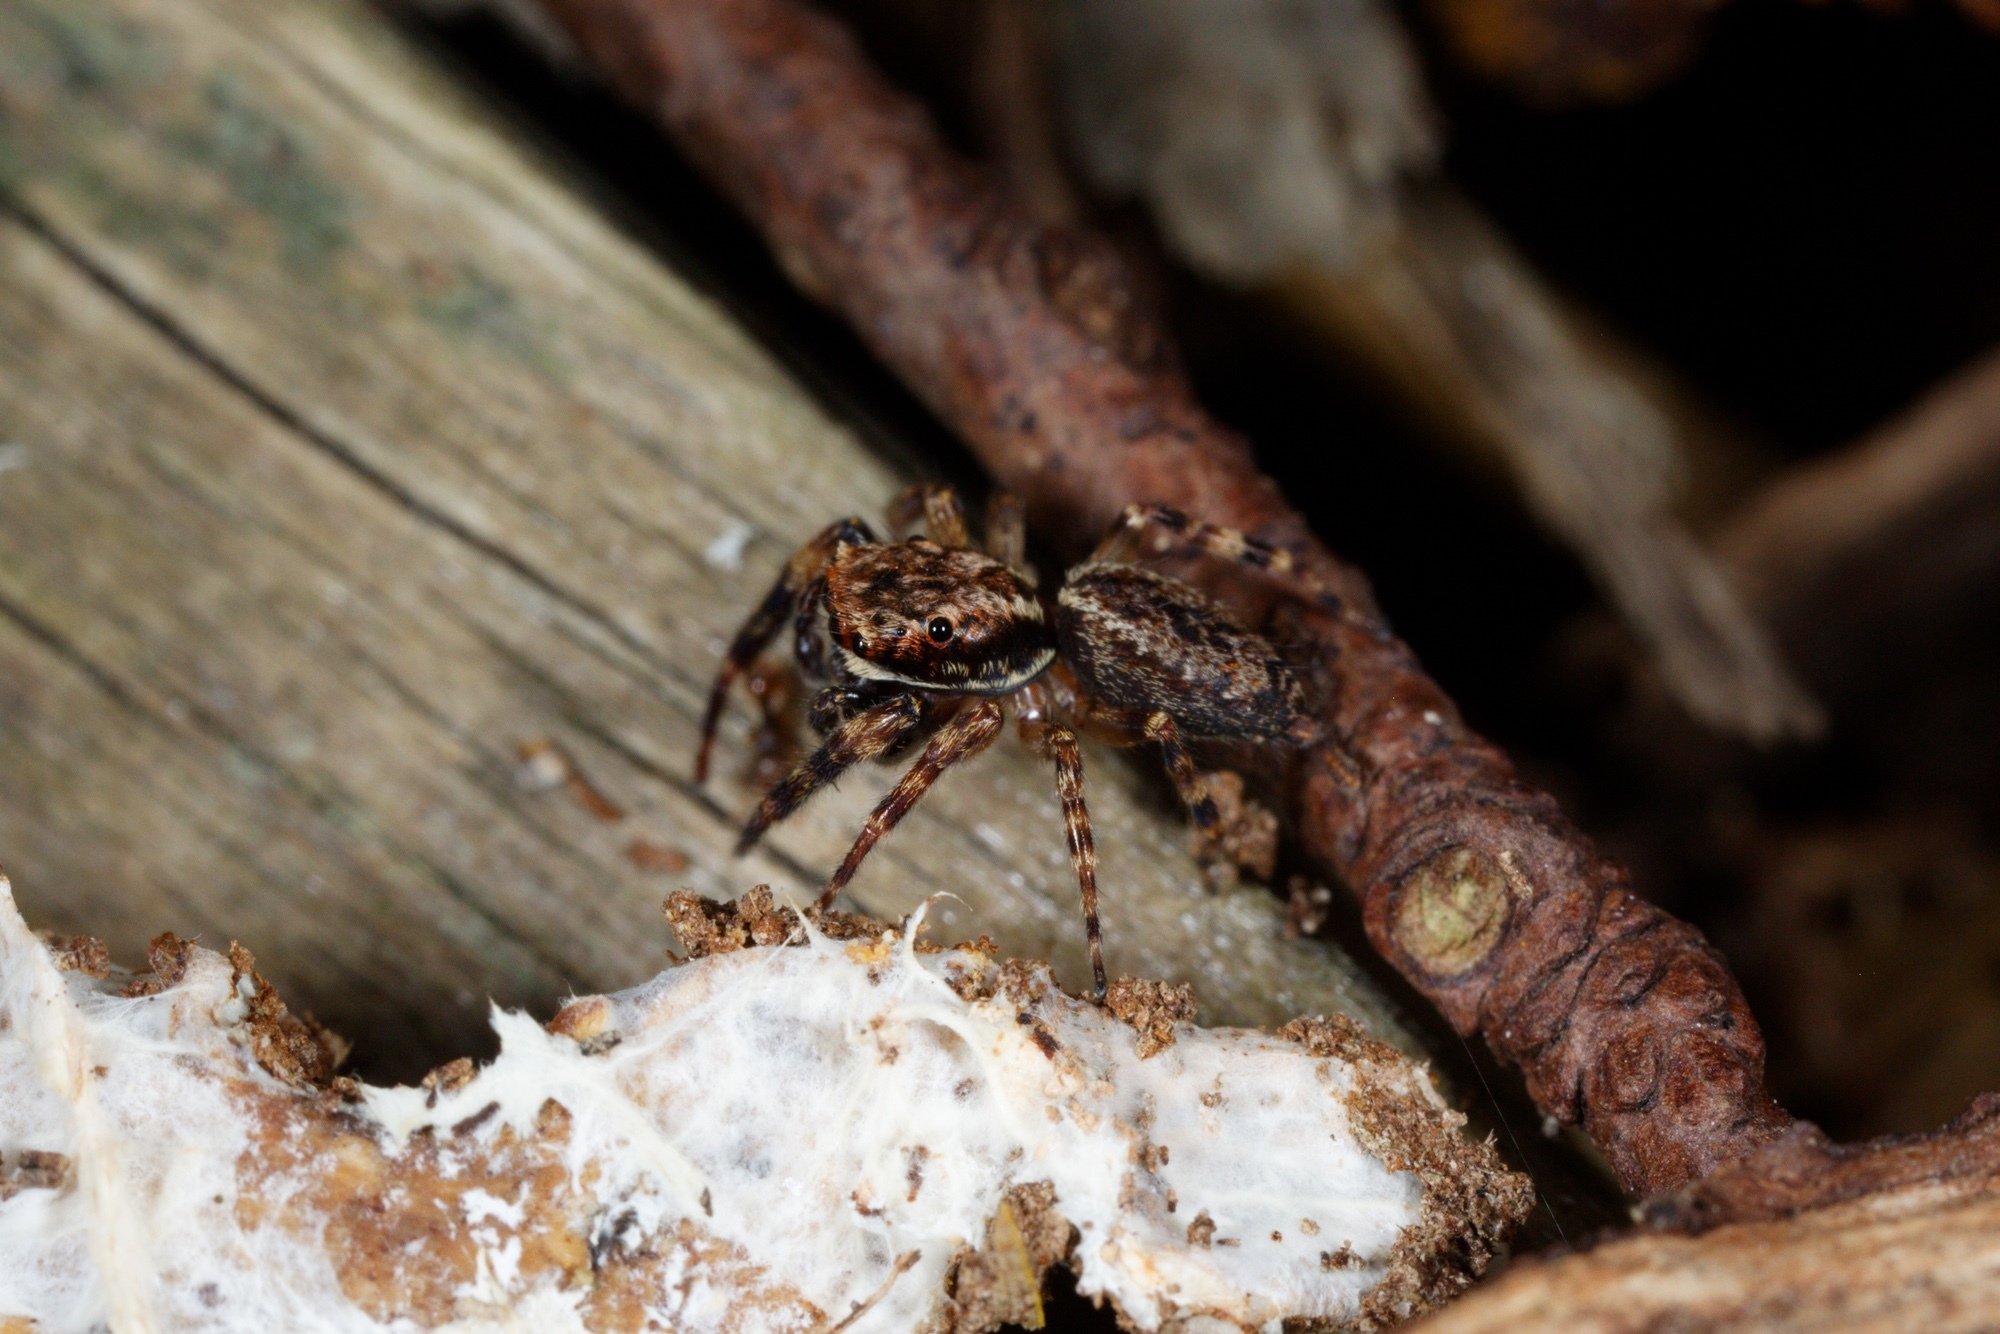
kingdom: Animalia
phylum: Arthropoda
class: Arachnida
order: Araneae
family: Salticidae
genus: Trite
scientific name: Trite auricoma
